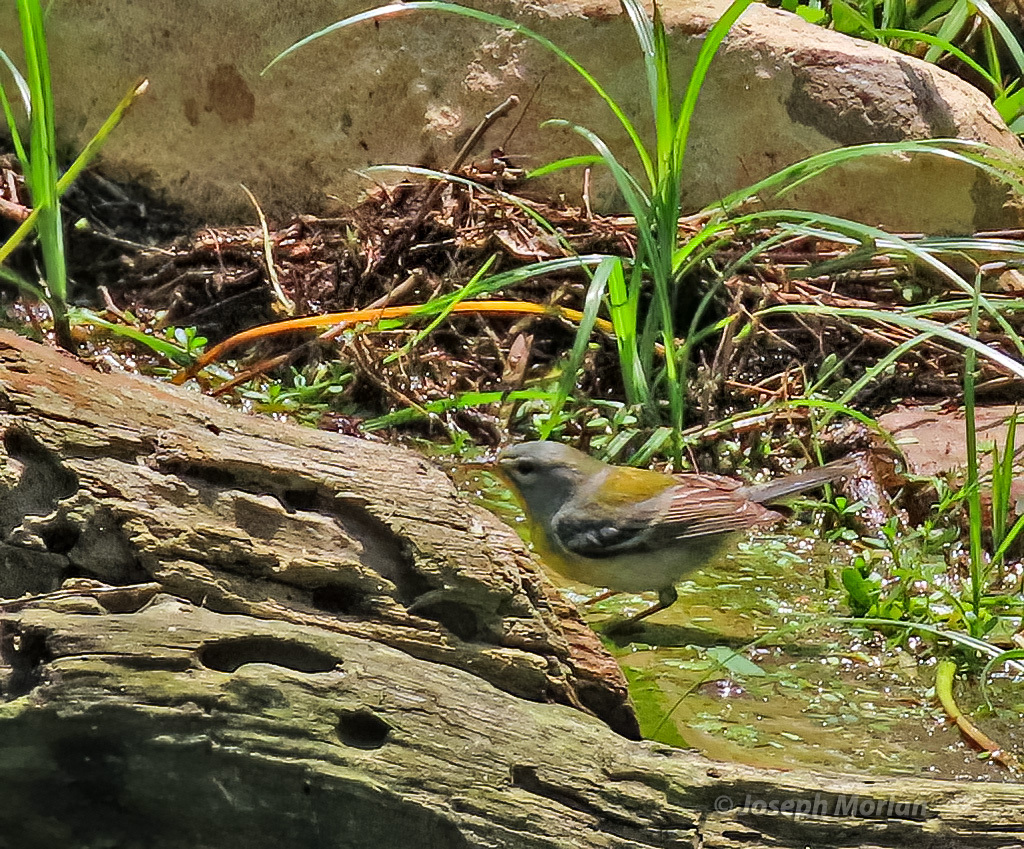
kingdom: Animalia
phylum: Chordata
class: Aves
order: Passeriformes
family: Parulidae
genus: Setophaga
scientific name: Setophaga americana
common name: Northern parula
